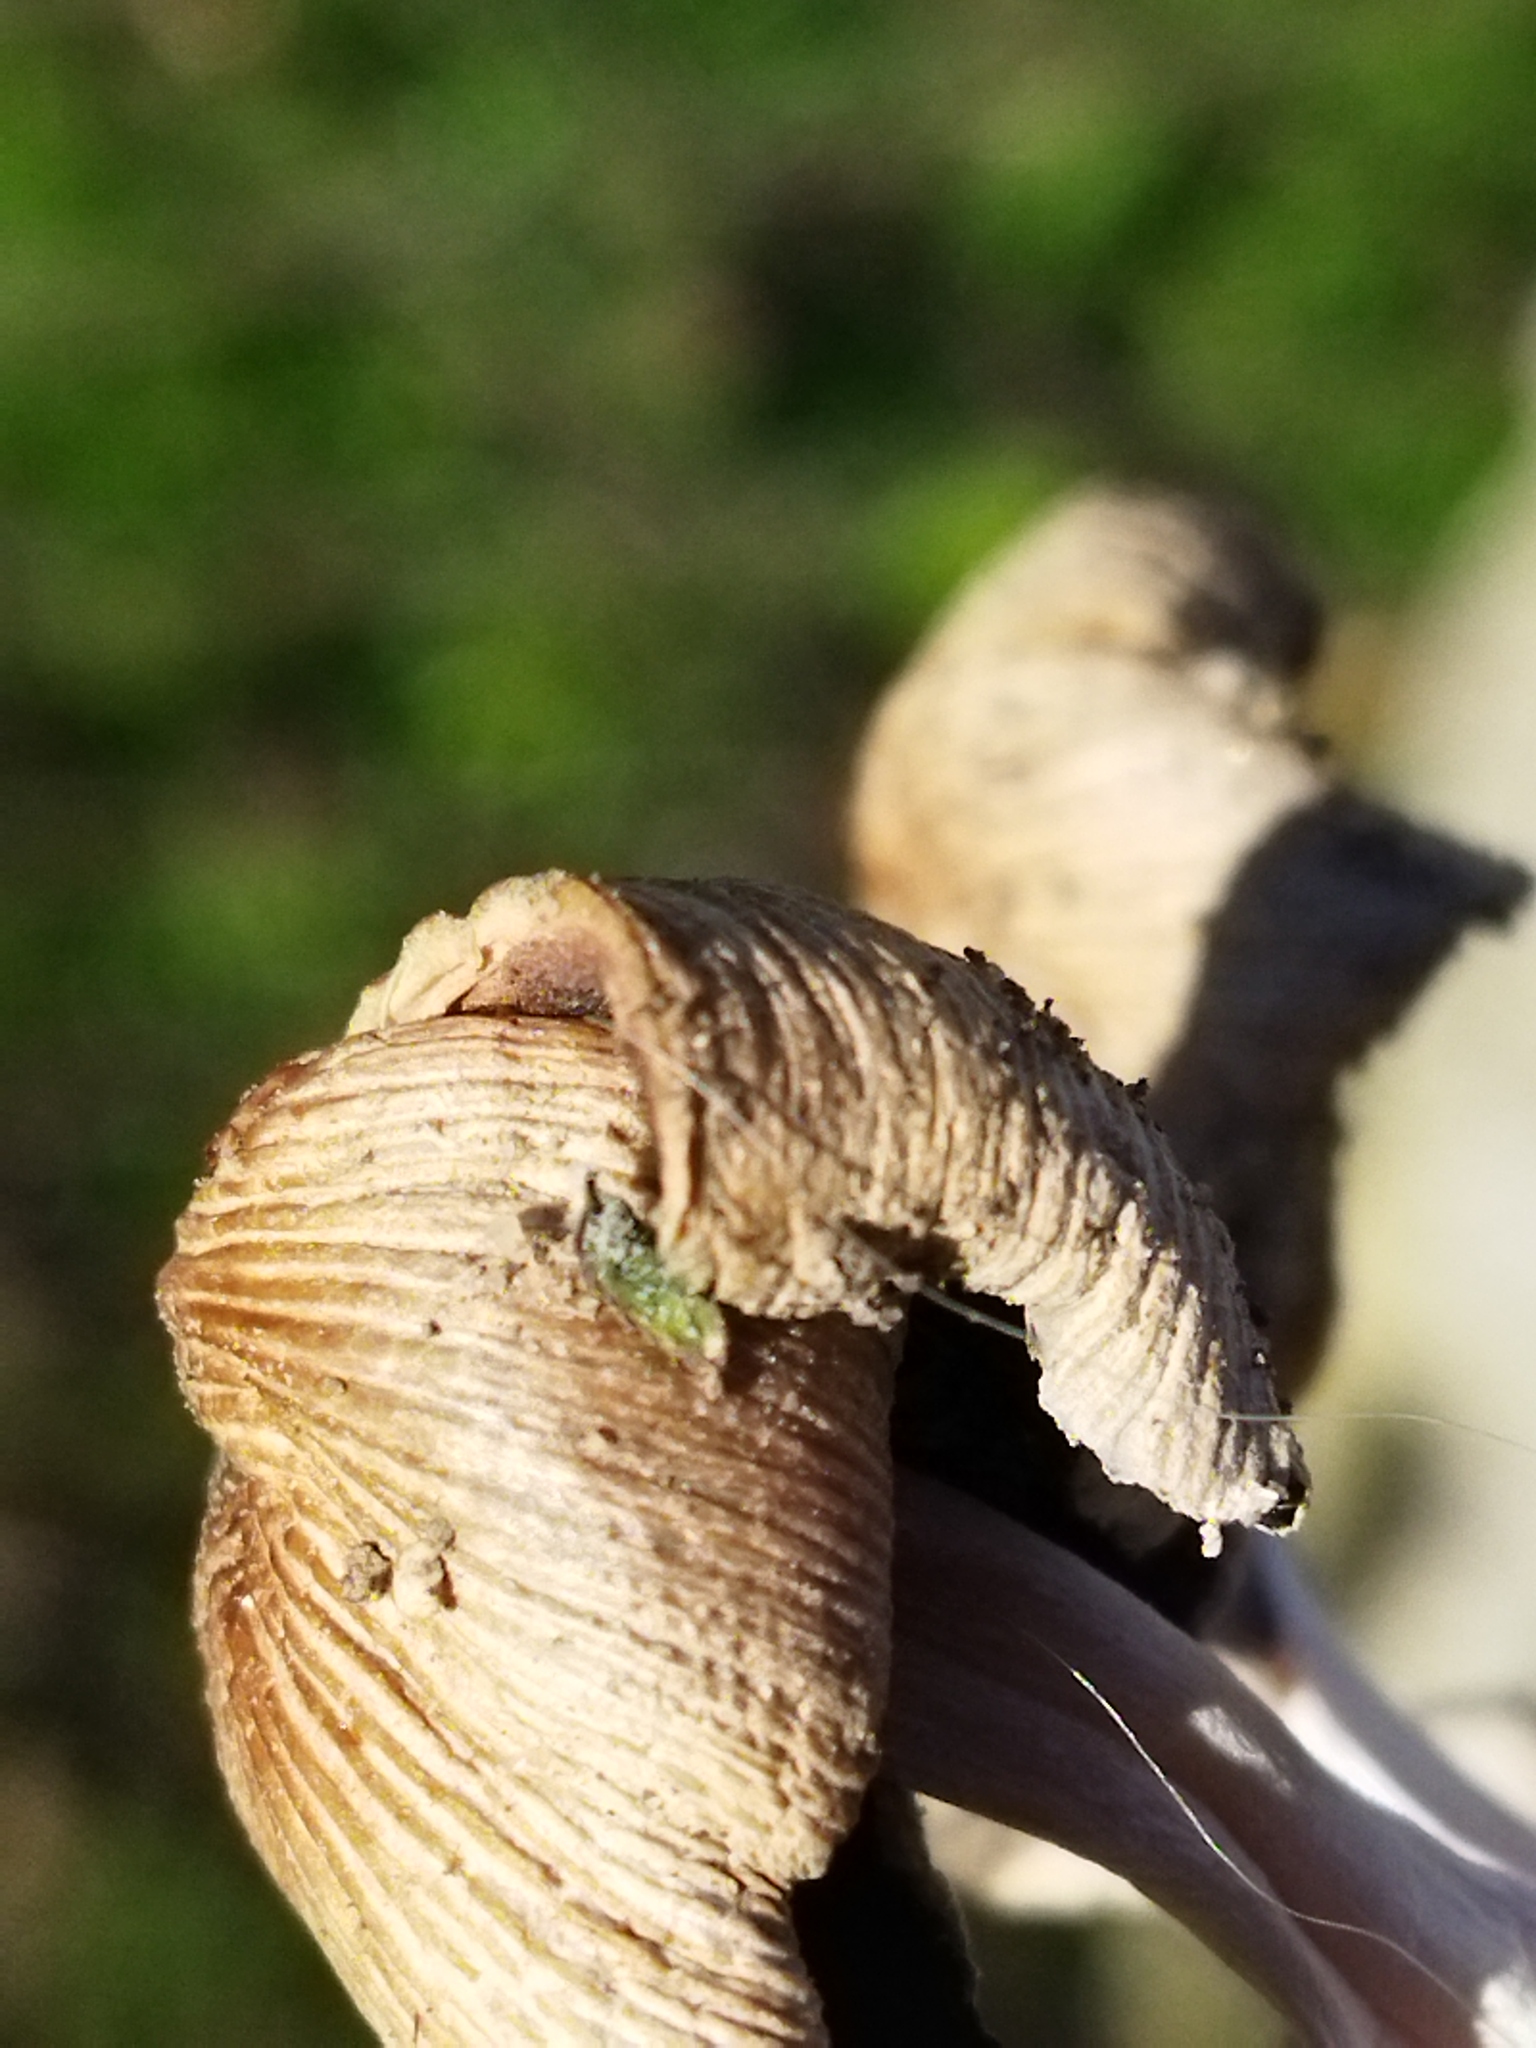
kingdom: Fungi
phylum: Basidiomycota
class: Agaricomycetes
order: Agaricales
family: Psathyrellaceae
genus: Coprinellus
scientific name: Coprinellus micaceus
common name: Glistening ink-cap
